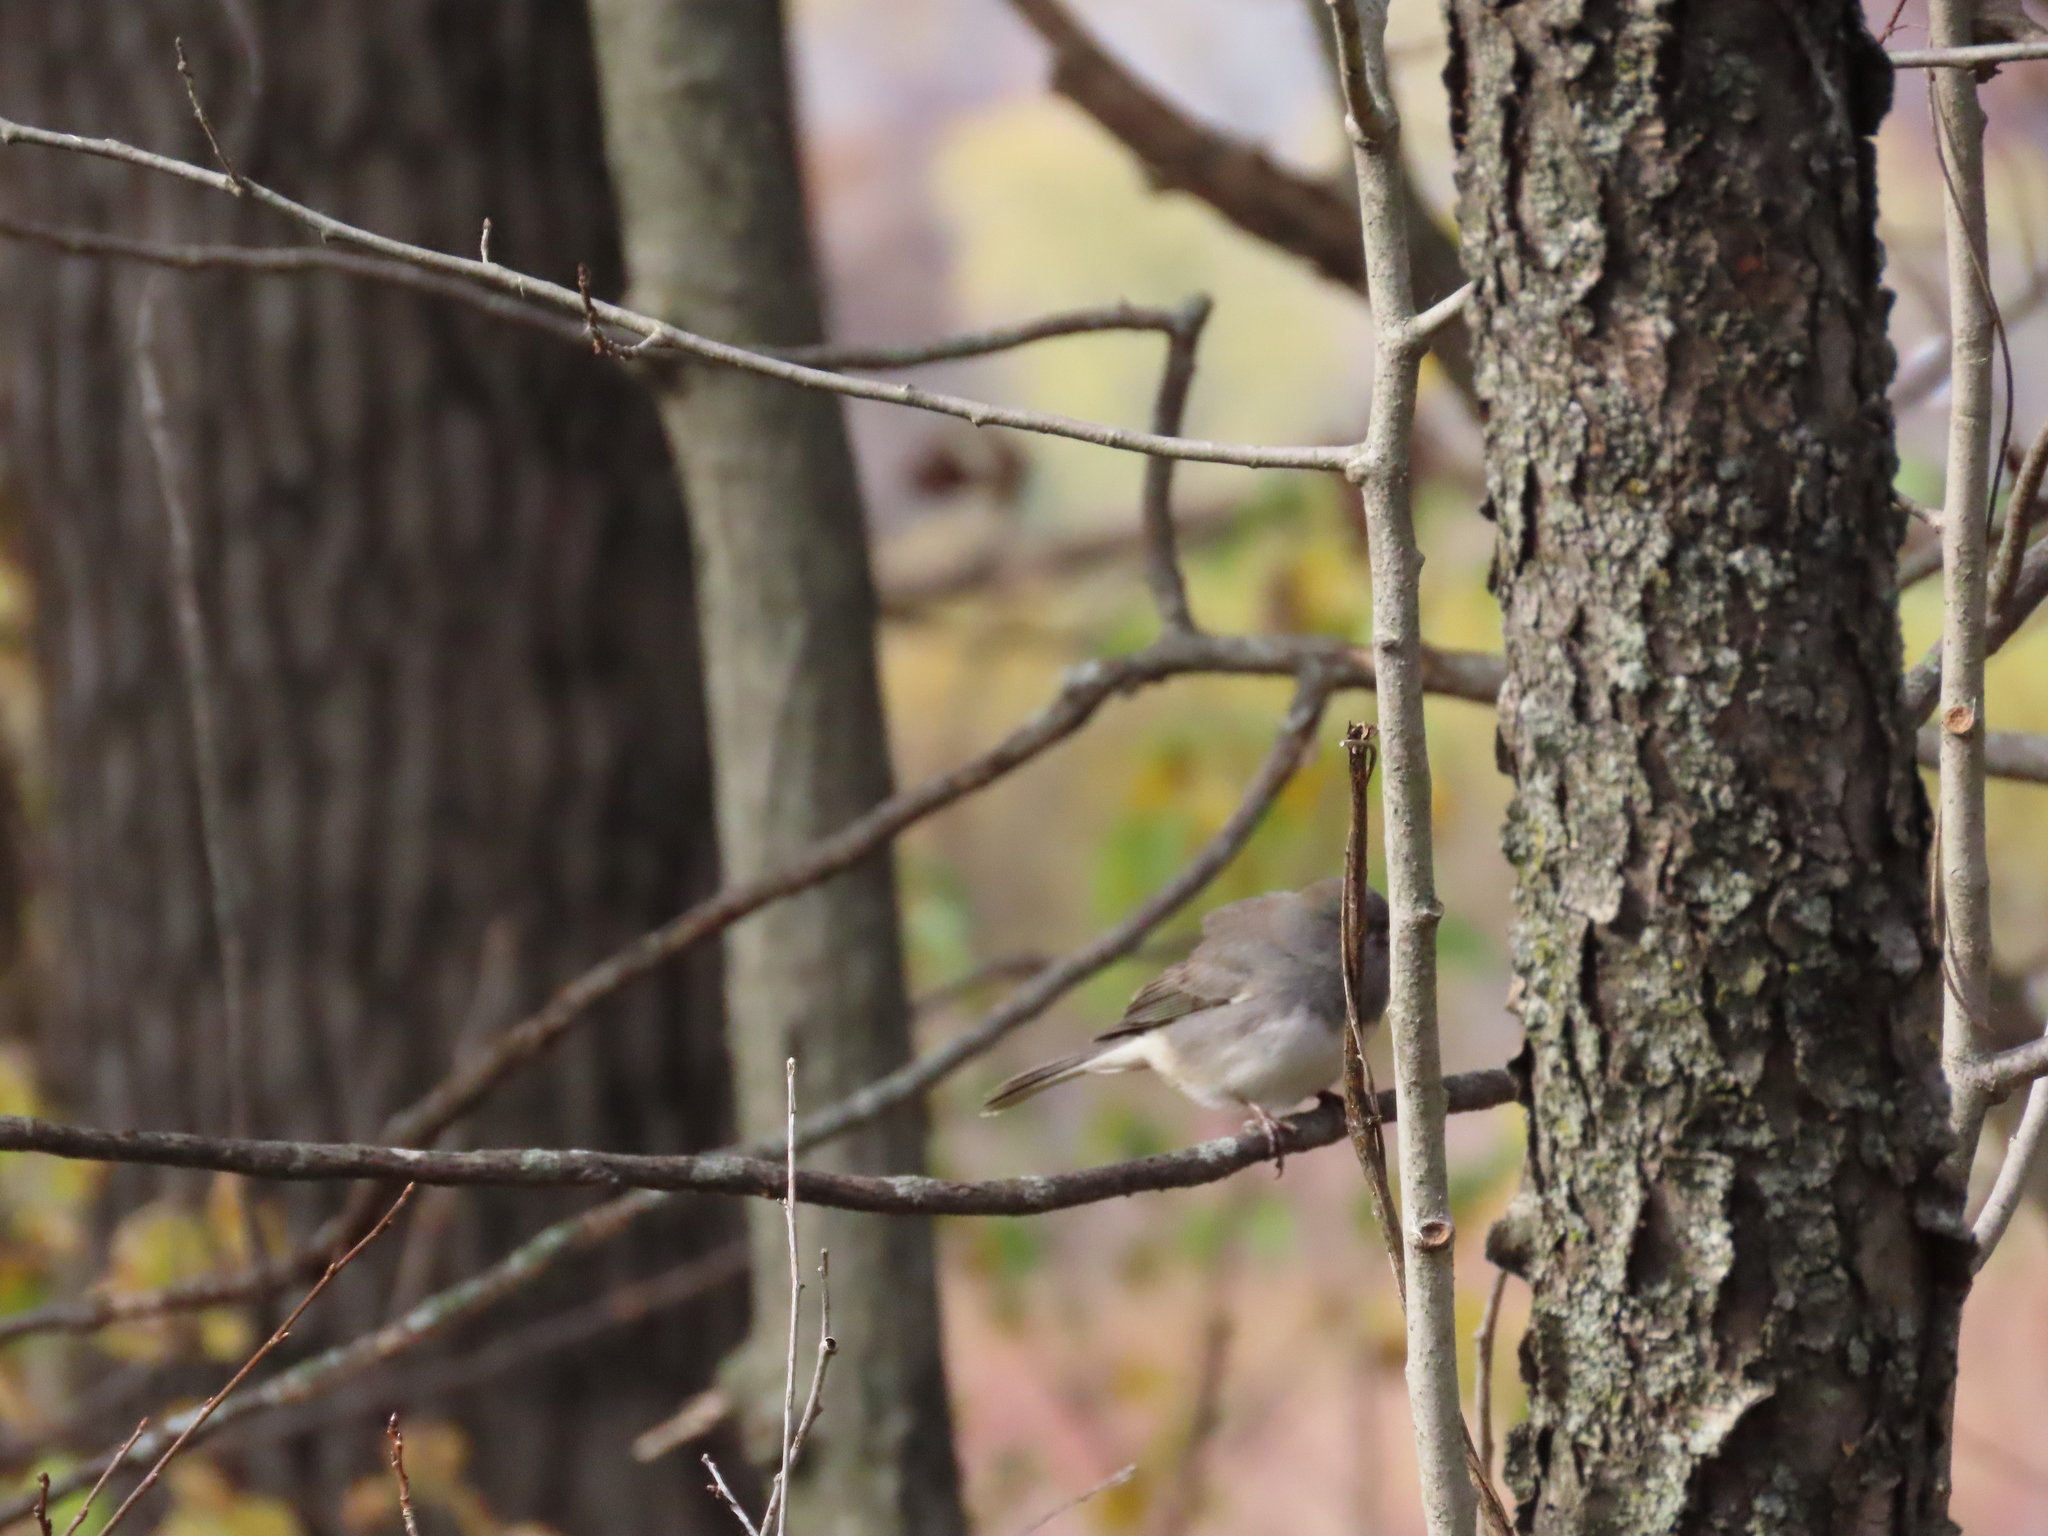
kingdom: Animalia
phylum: Chordata
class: Aves
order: Passeriformes
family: Passerellidae
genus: Junco
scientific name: Junco hyemalis
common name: Dark-eyed junco
